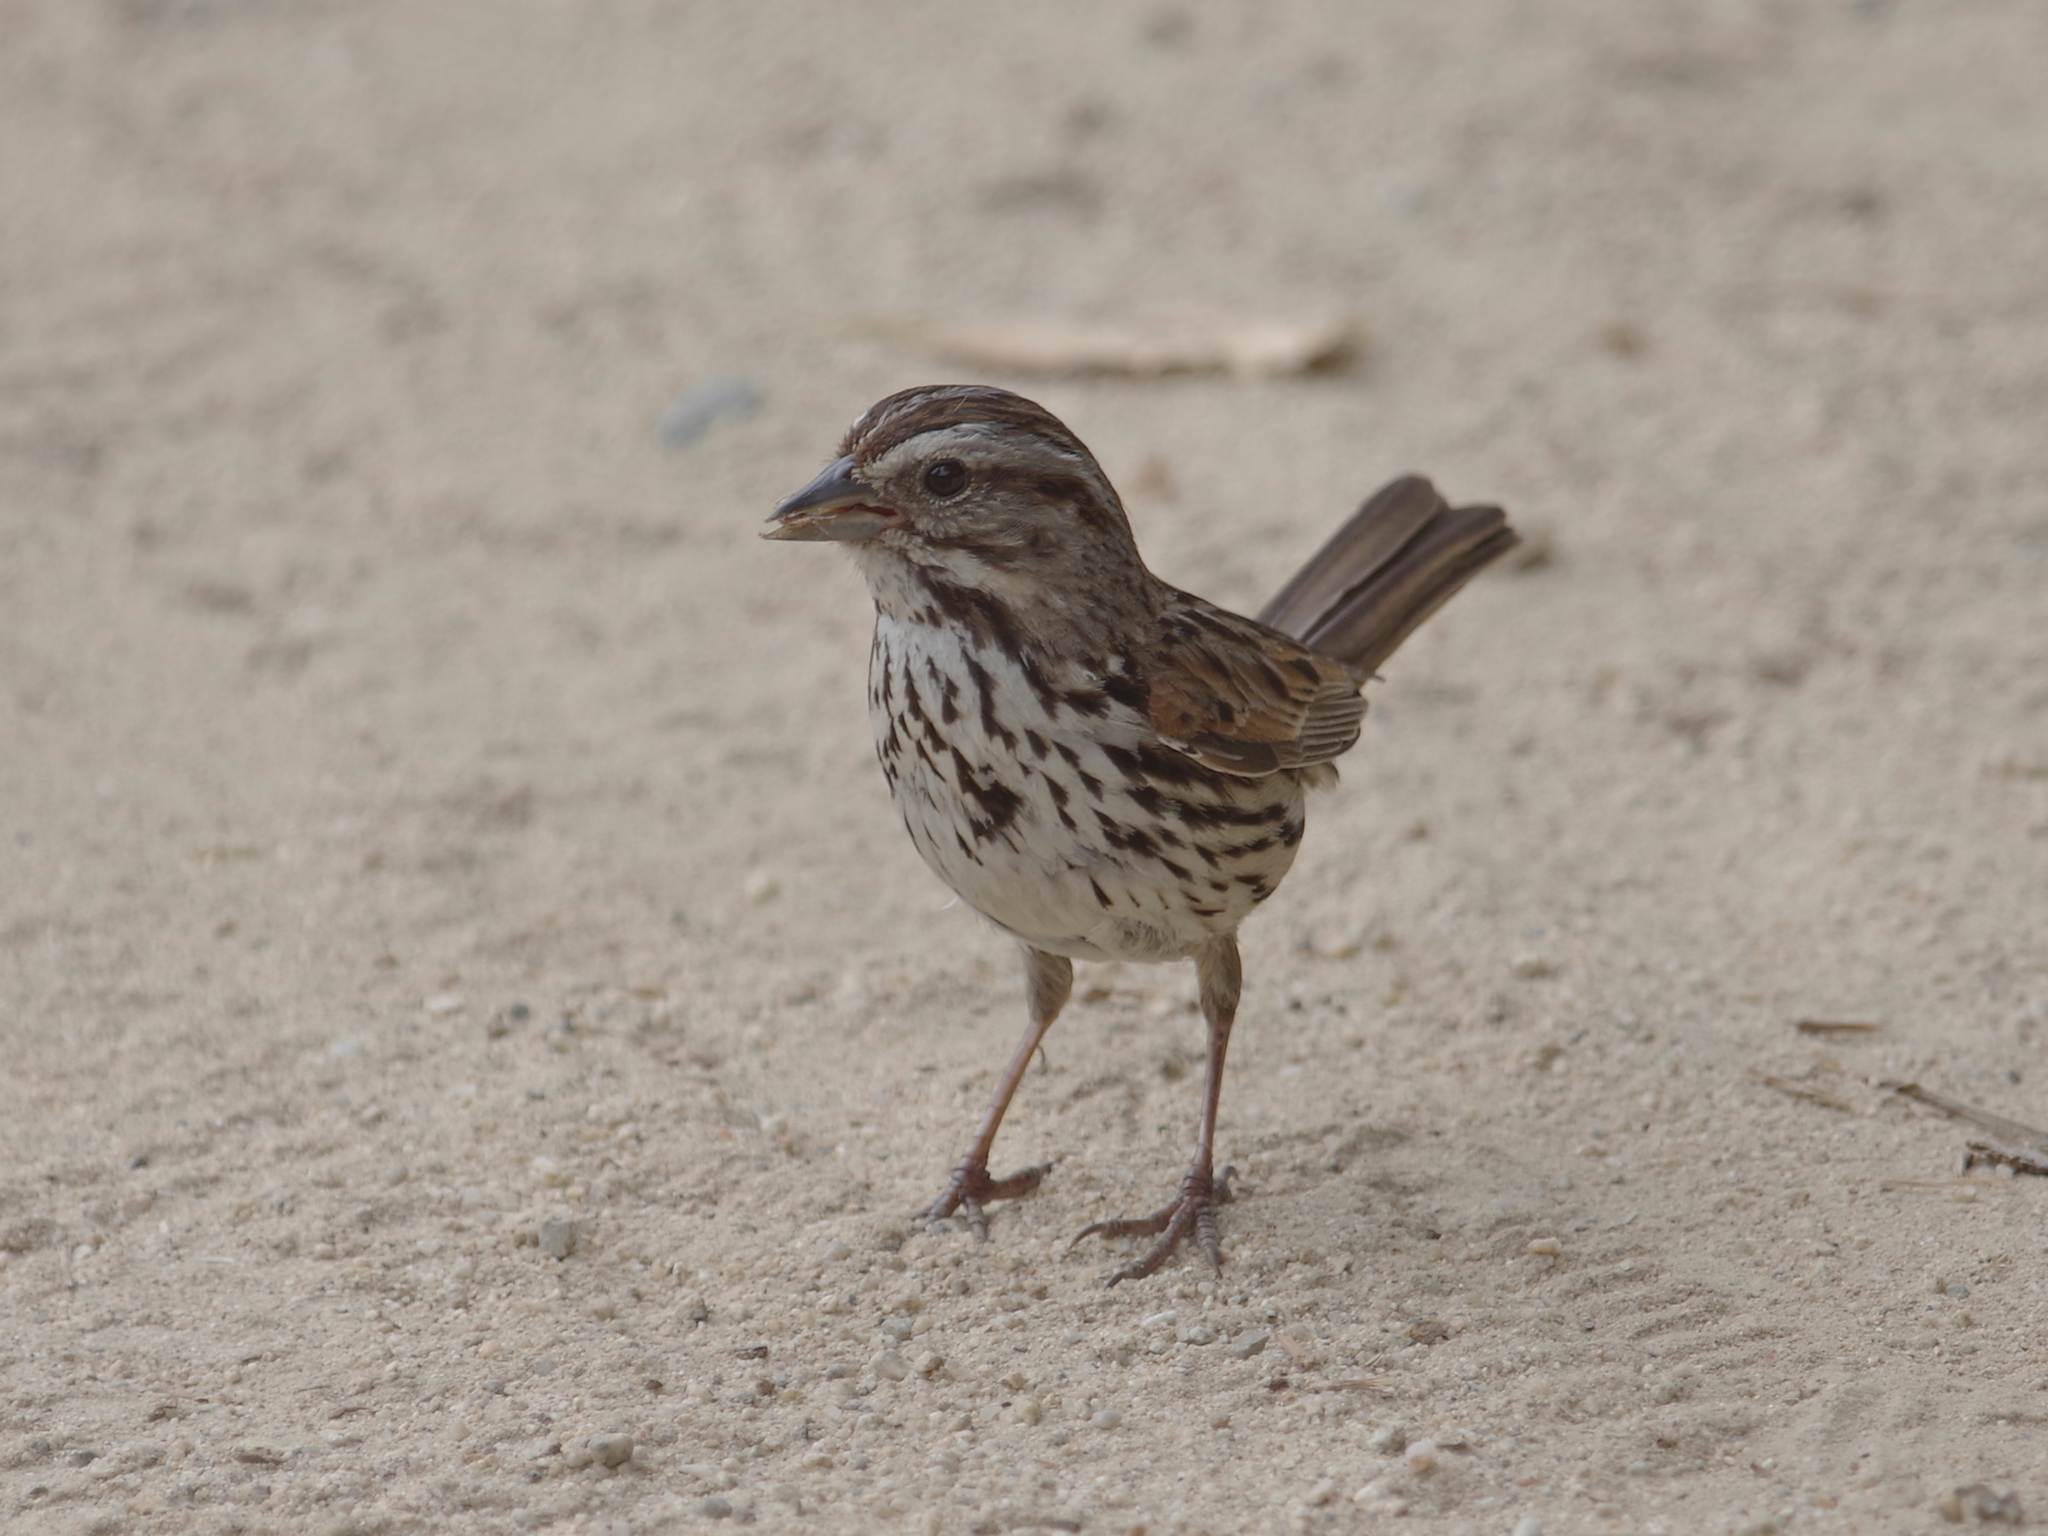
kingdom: Animalia
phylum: Chordata
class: Aves
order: Passeriformes
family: Passerellidae
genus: Melospiza
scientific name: Melospiza melodia
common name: Song sparrow
